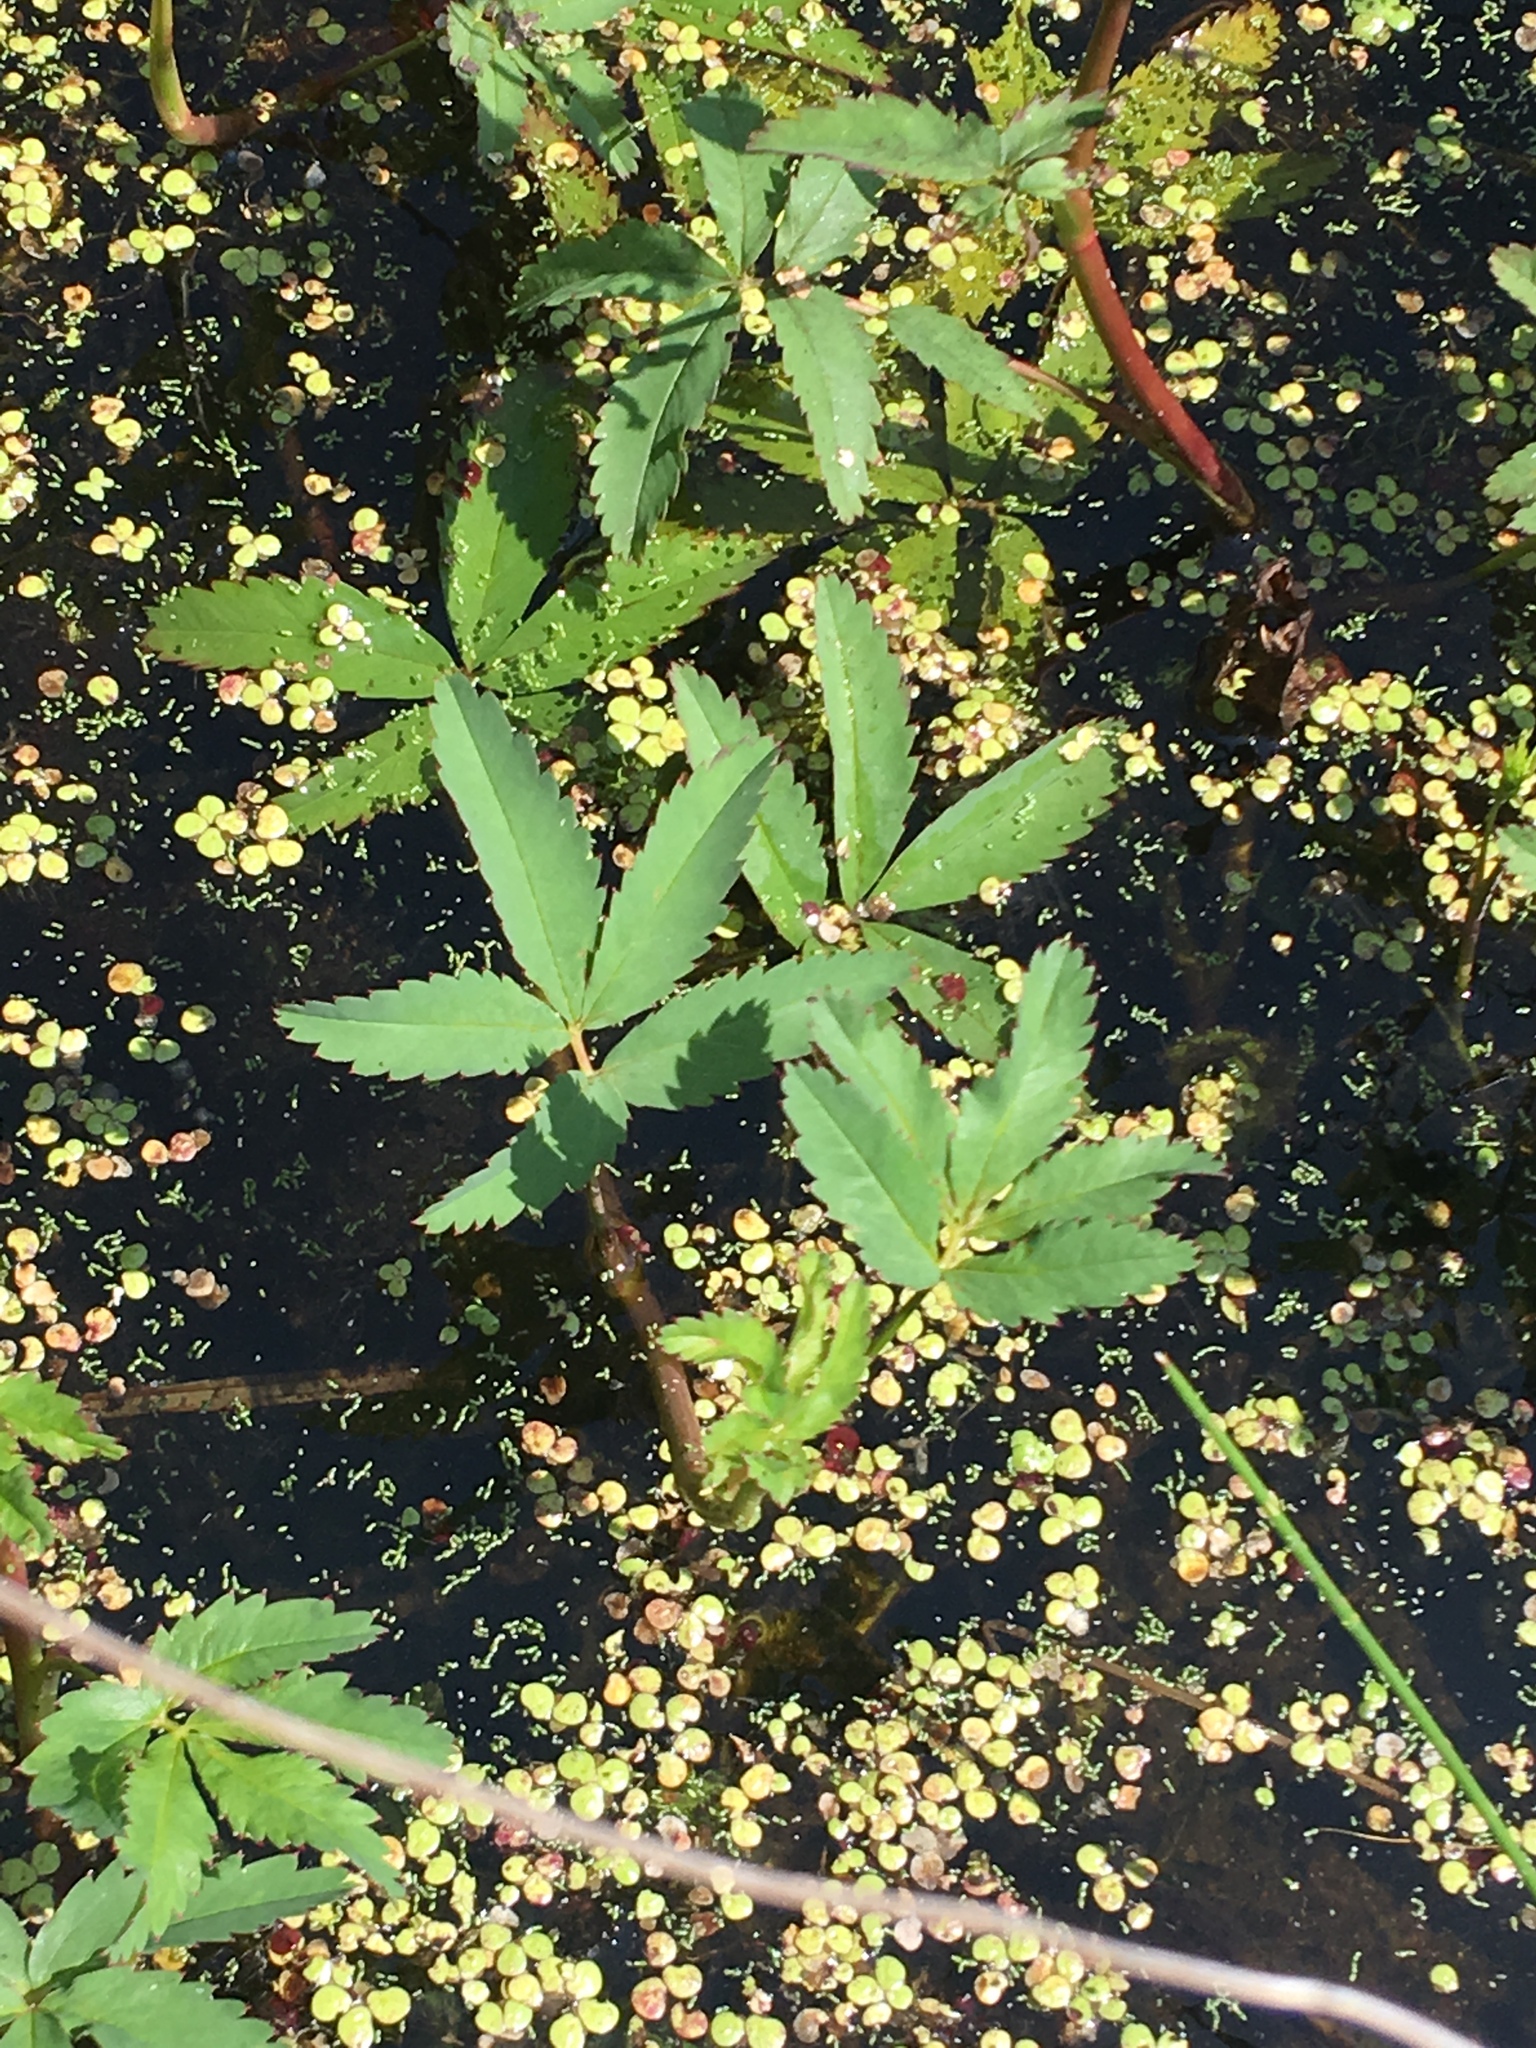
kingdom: Plantae
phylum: Tracheophyta
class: Magnoliopsida
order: Rosales
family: Rosaceae
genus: Comarum
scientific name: Comarum palustre
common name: Marsh cinquefoil
